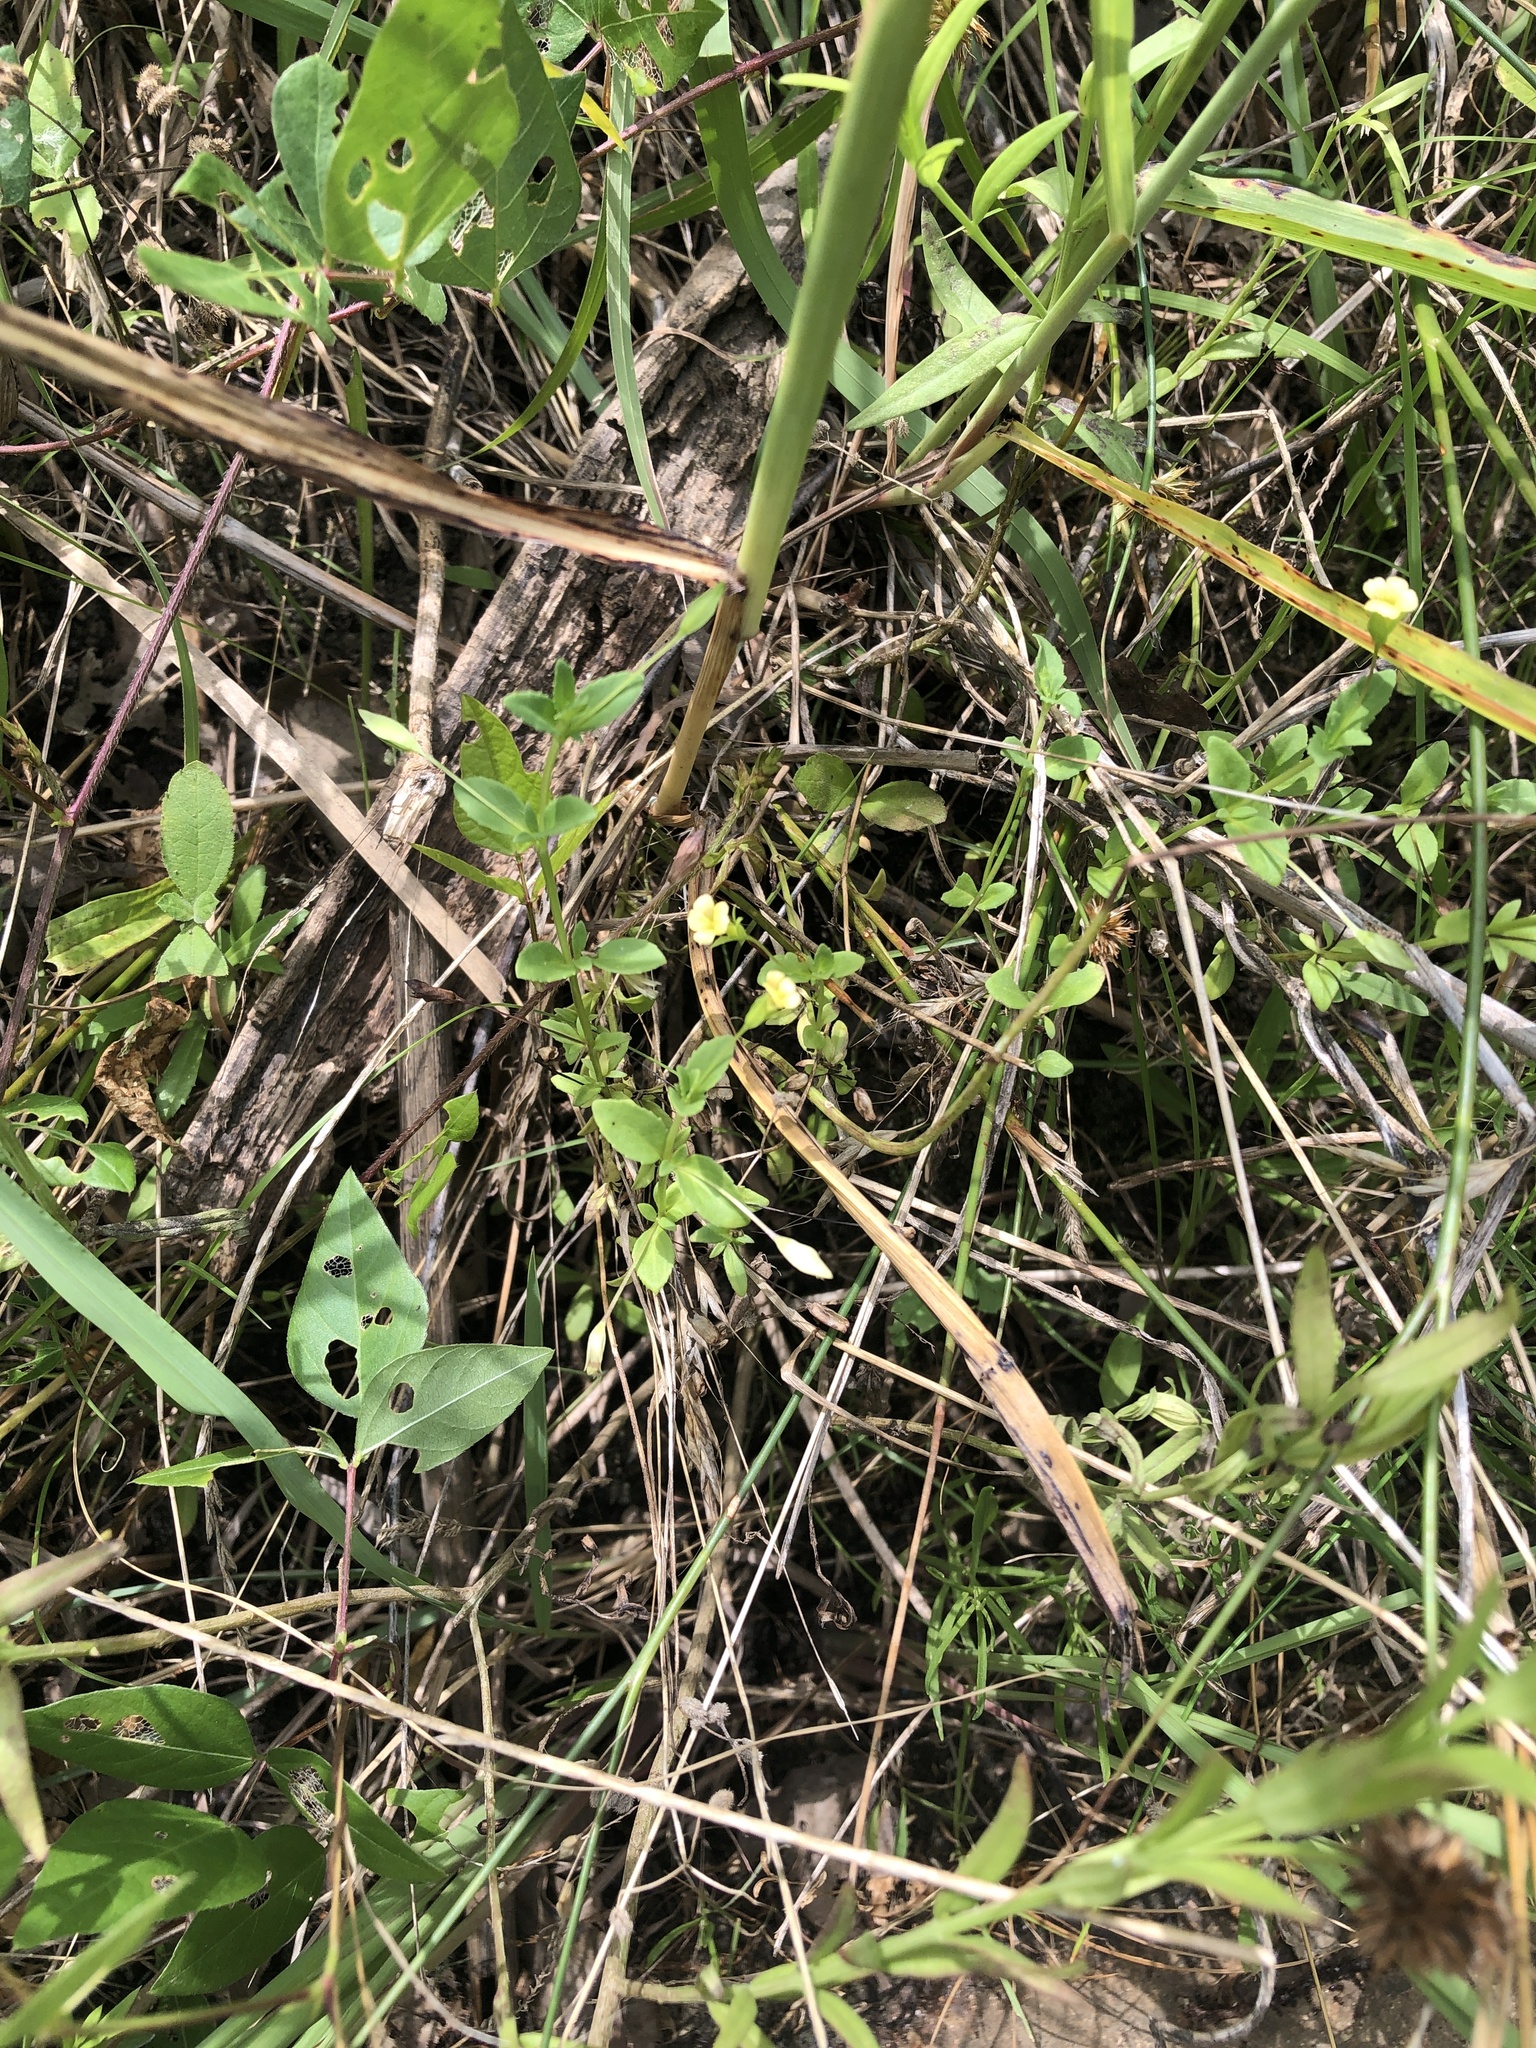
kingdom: Plantae
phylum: Tracheophyta
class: Magnoliopsida
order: Lamiales
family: Plantaginaceae
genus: Mecardonia
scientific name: Mecardonia procumbens
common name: Baby jump-up
